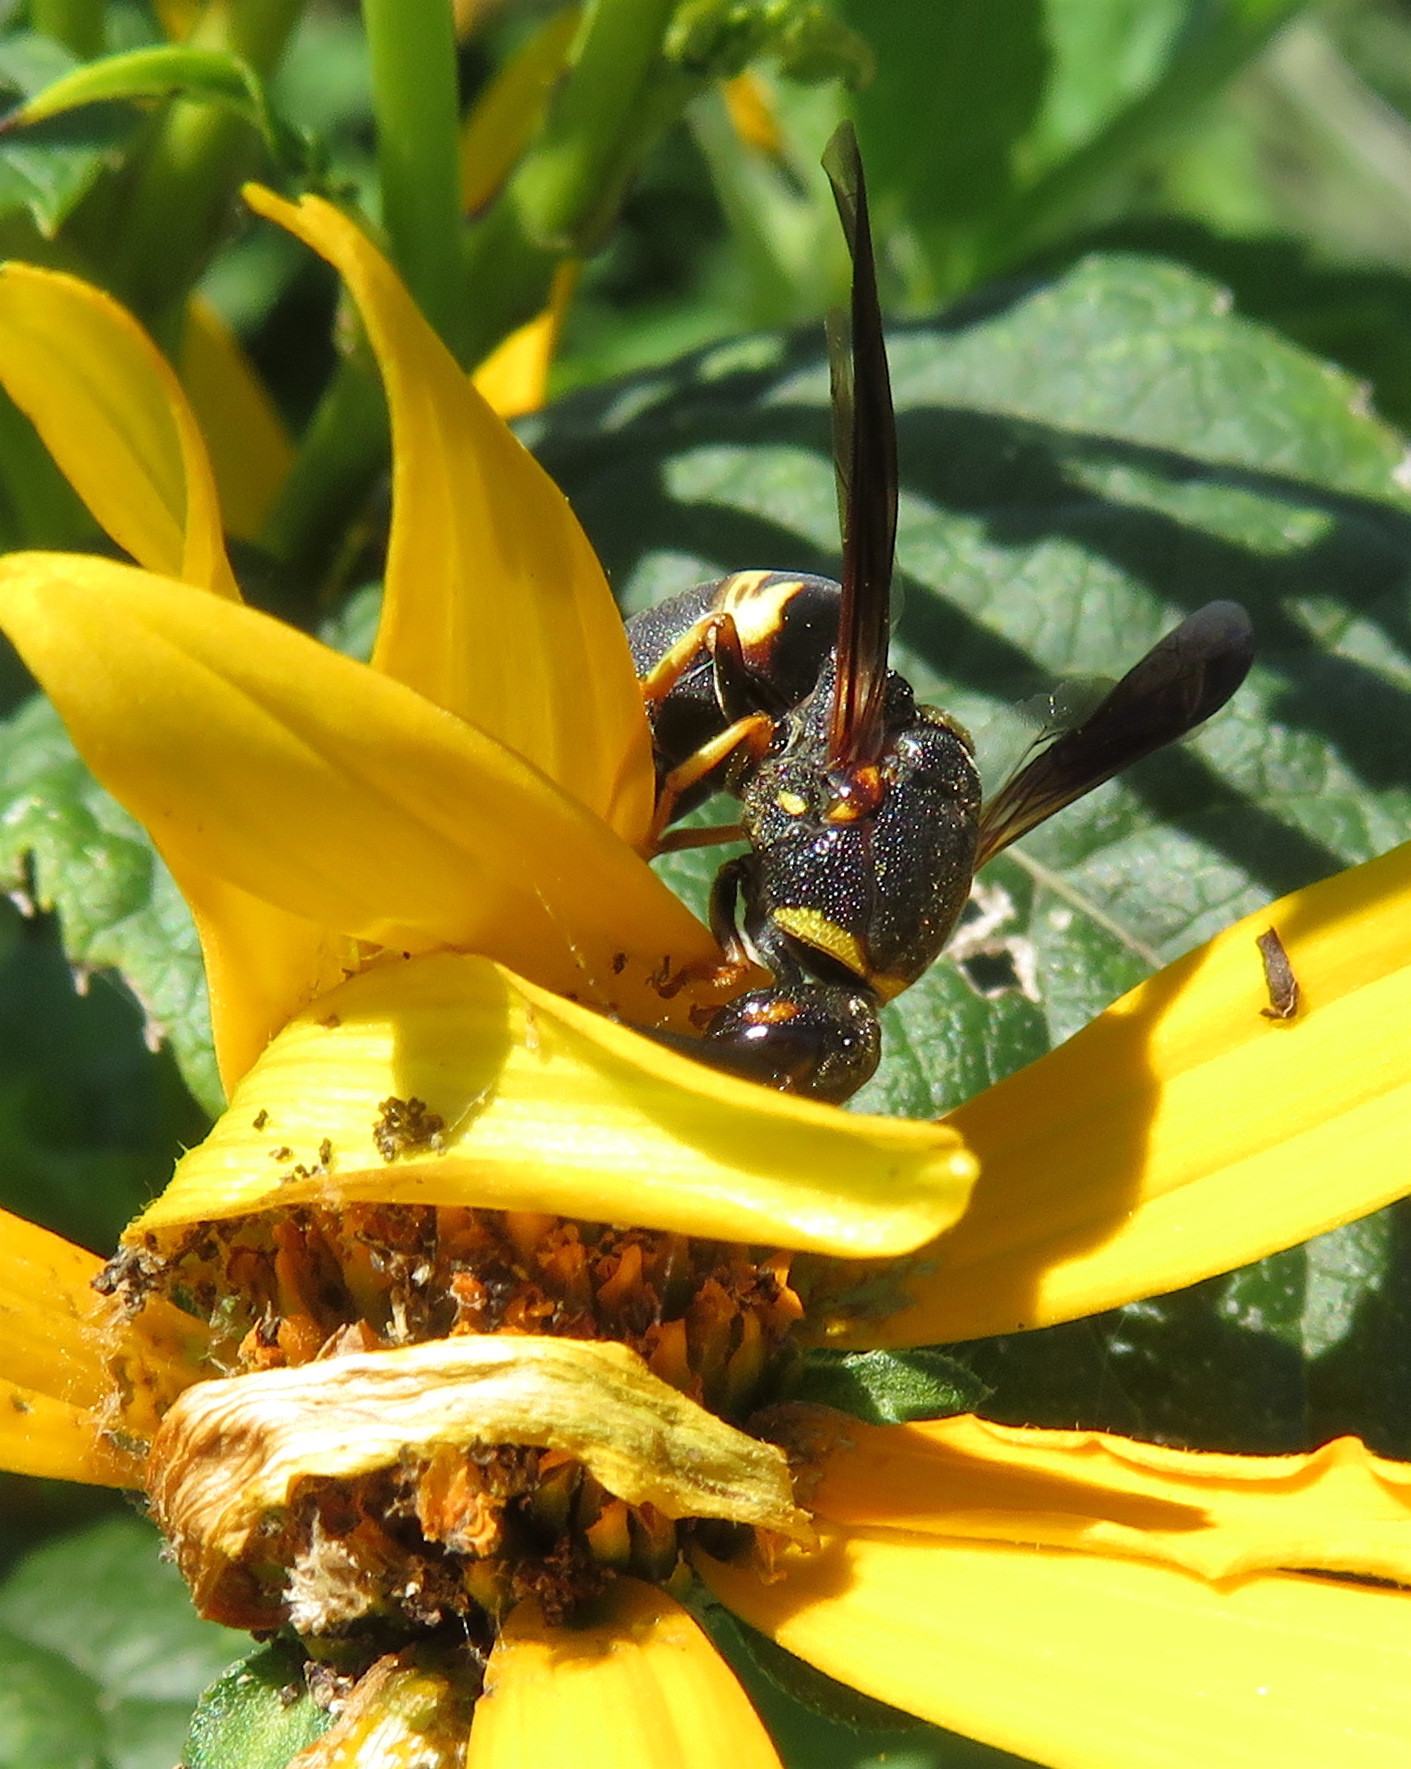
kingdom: Animalia
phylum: Arthropoda
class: Insecta
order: Hymenoptera
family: Eumenidae
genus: Euodynerus
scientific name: Euodynerus hidalgo
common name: Wasp
